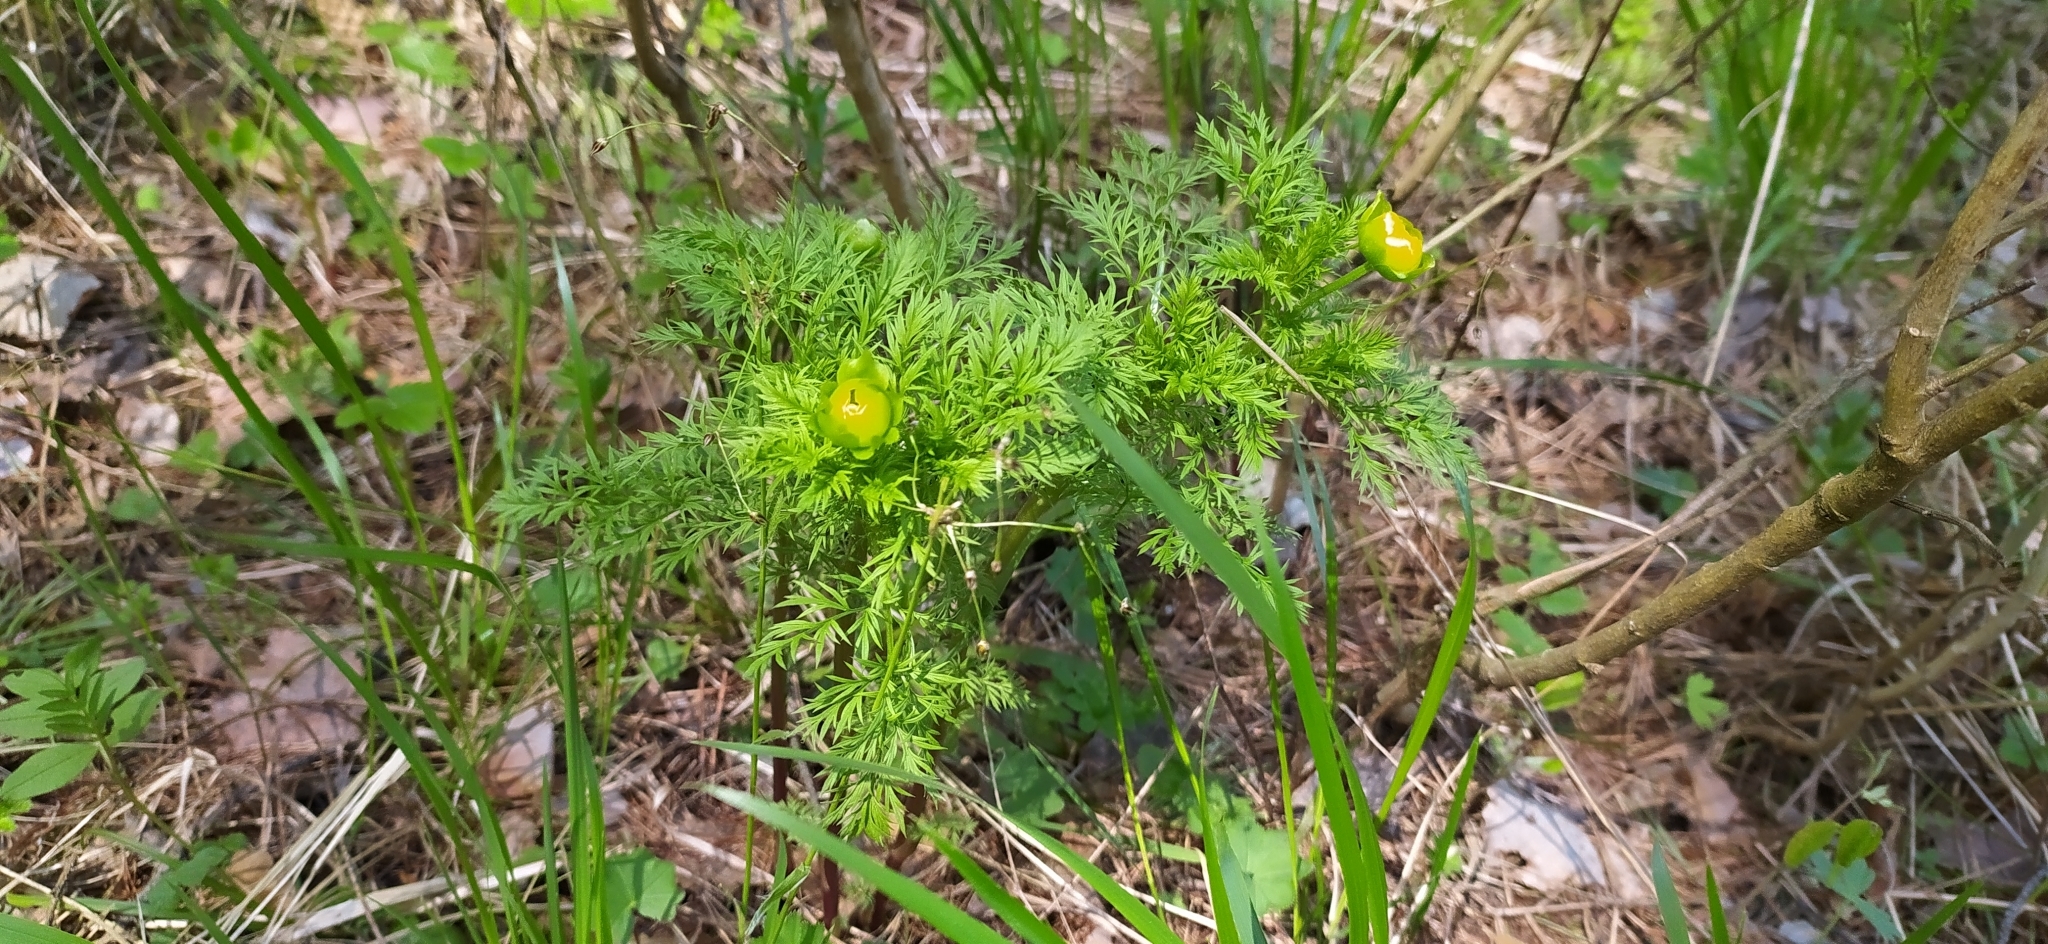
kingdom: Plantae
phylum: Tracheophyta
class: Magnoliopsida
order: Ranunculales
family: Ranunculaceae
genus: Adonis
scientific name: Adonis
